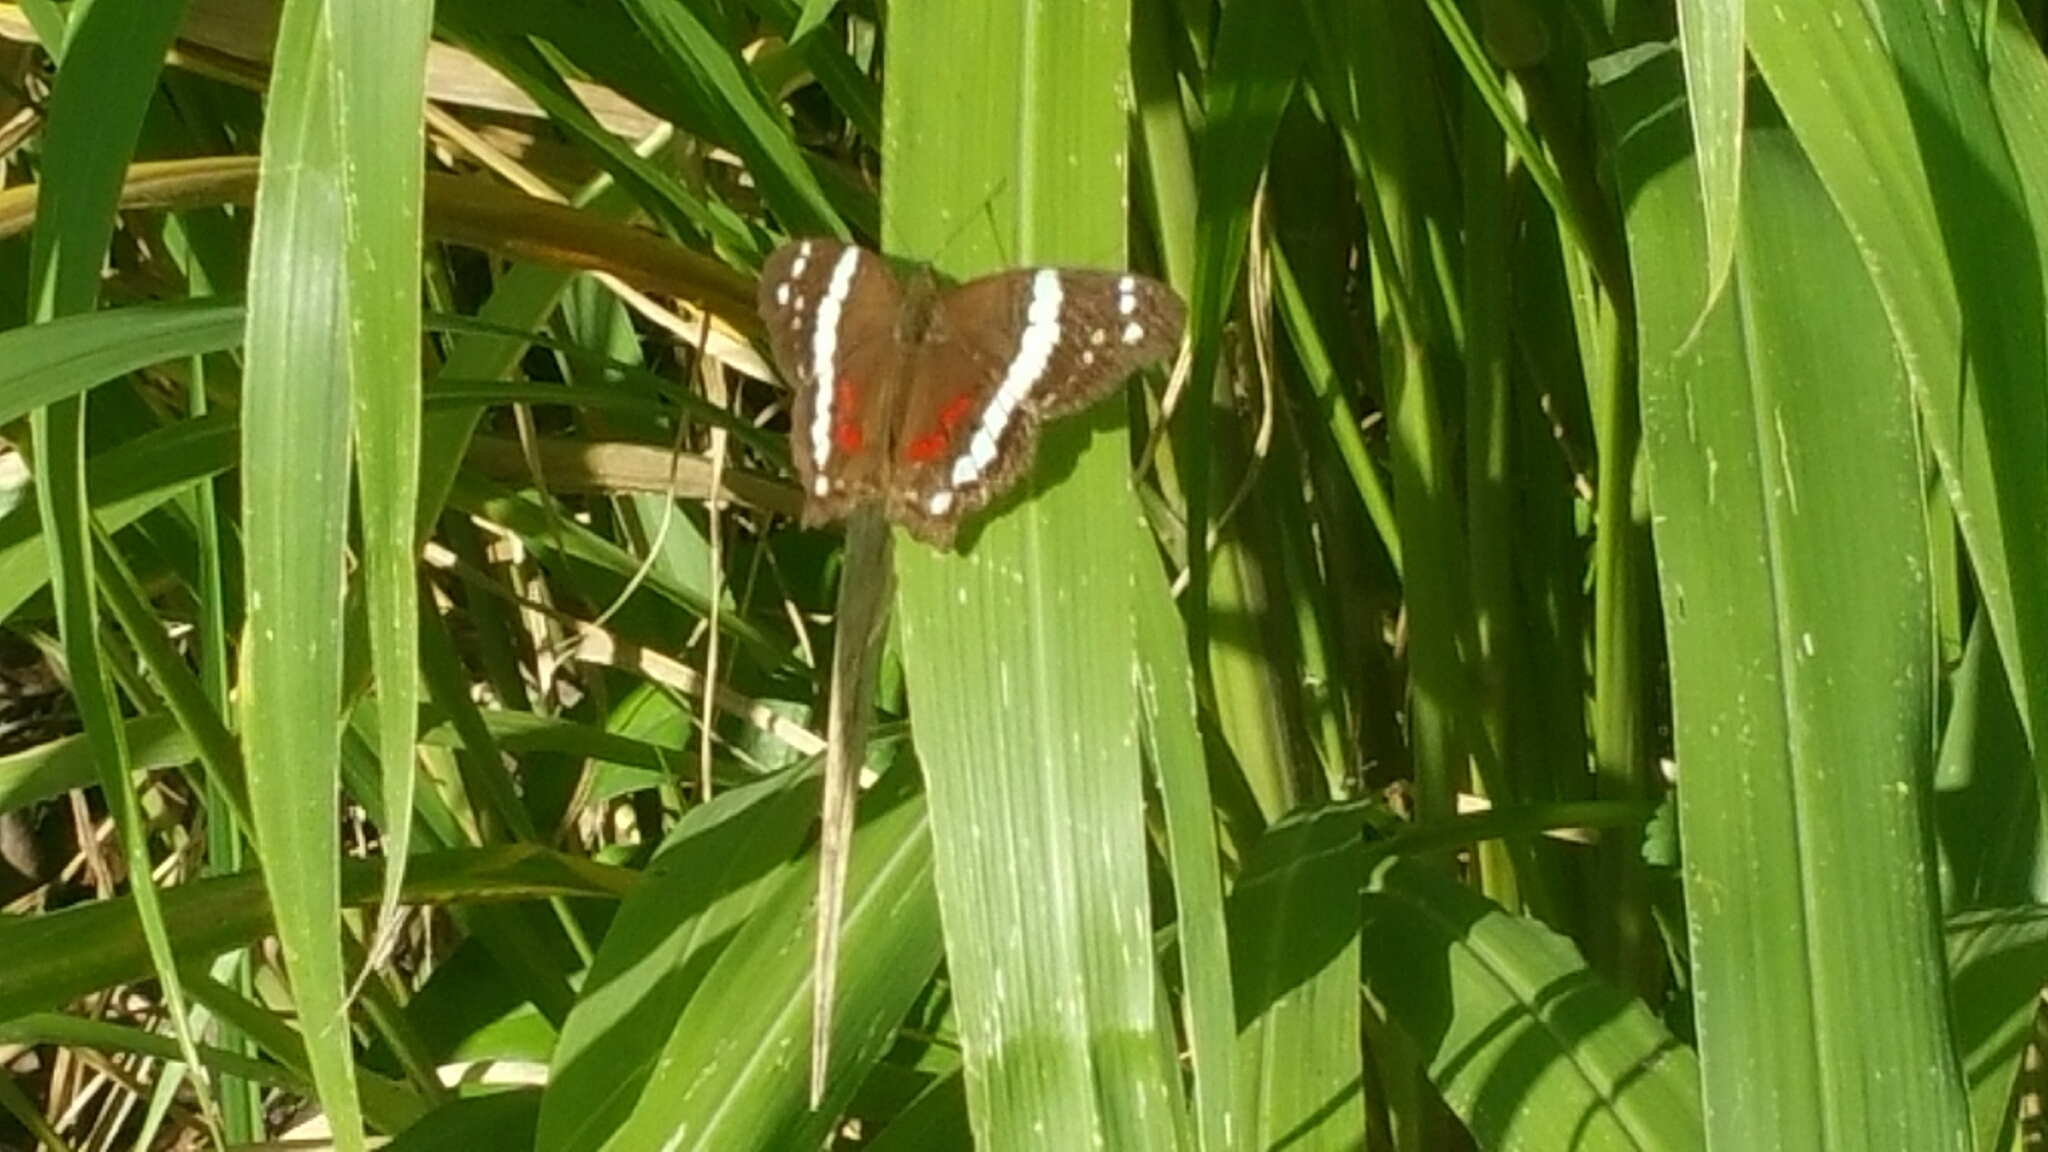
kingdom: Animalia
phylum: Arthropoda
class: Insecta
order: Lepidoptera
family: Nymphalidae
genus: Anartia
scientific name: Anartia fatima
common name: Banded peacock
